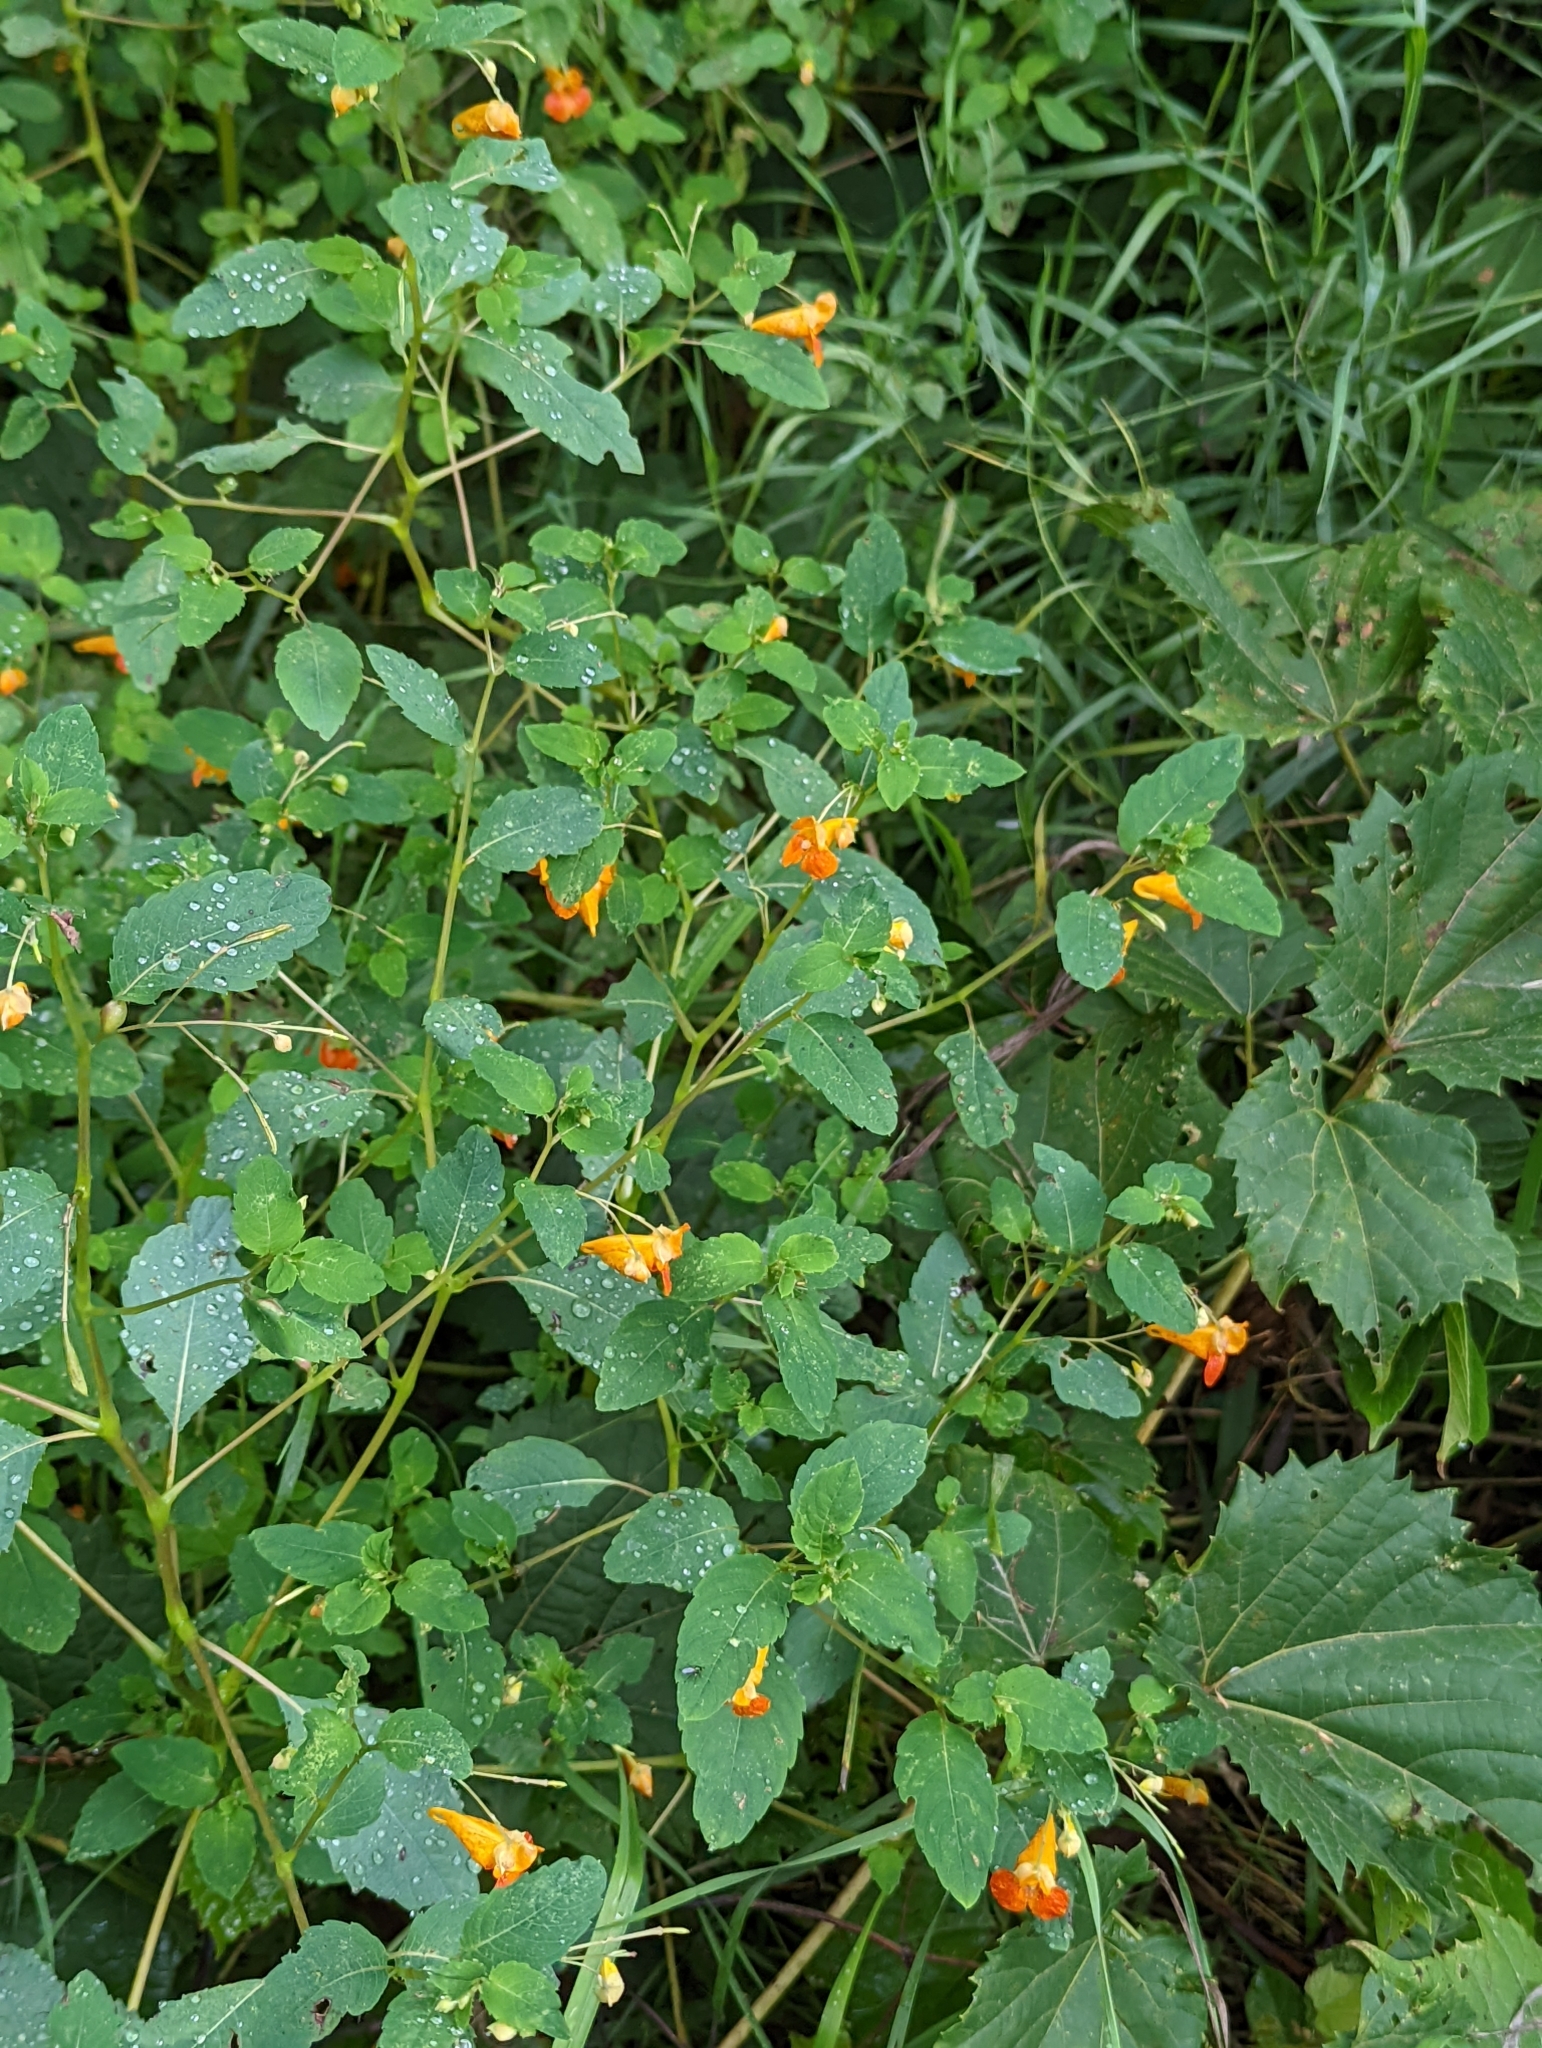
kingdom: Plantae
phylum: Tracheophyta
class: Magnoliopsida
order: Ericales
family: Balsaminaceae
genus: Impatiens
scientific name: Impatiens capensis
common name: Orange balsam
